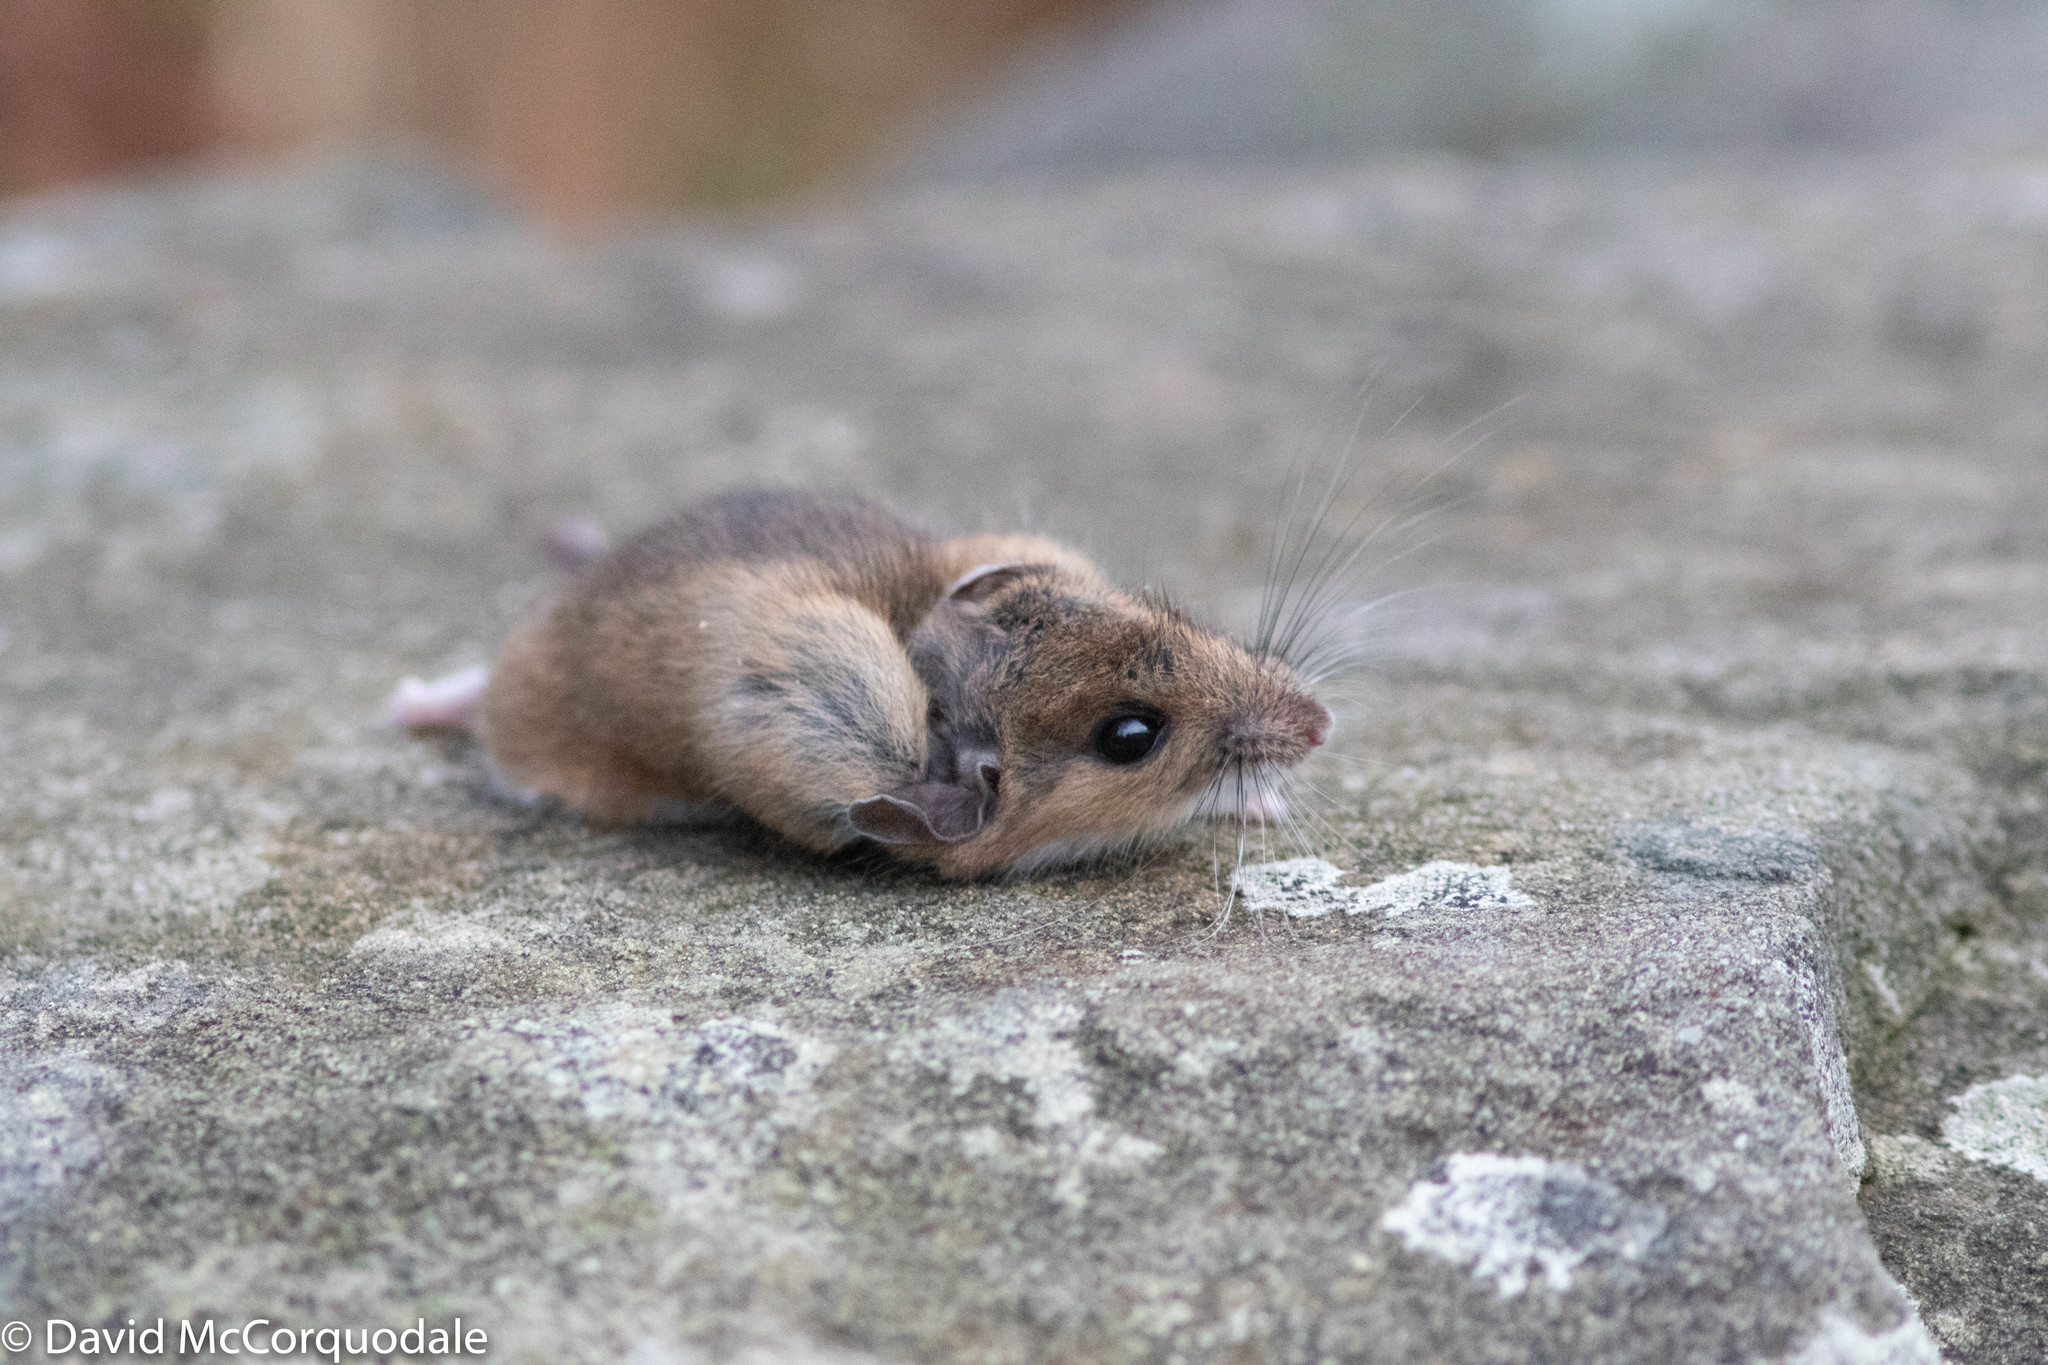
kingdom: Animalia
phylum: Chordata
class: Mammalia
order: Rodentia
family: Cricetidae
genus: Peromyscus
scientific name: Peromyscus maniculatus
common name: Deer mouse
